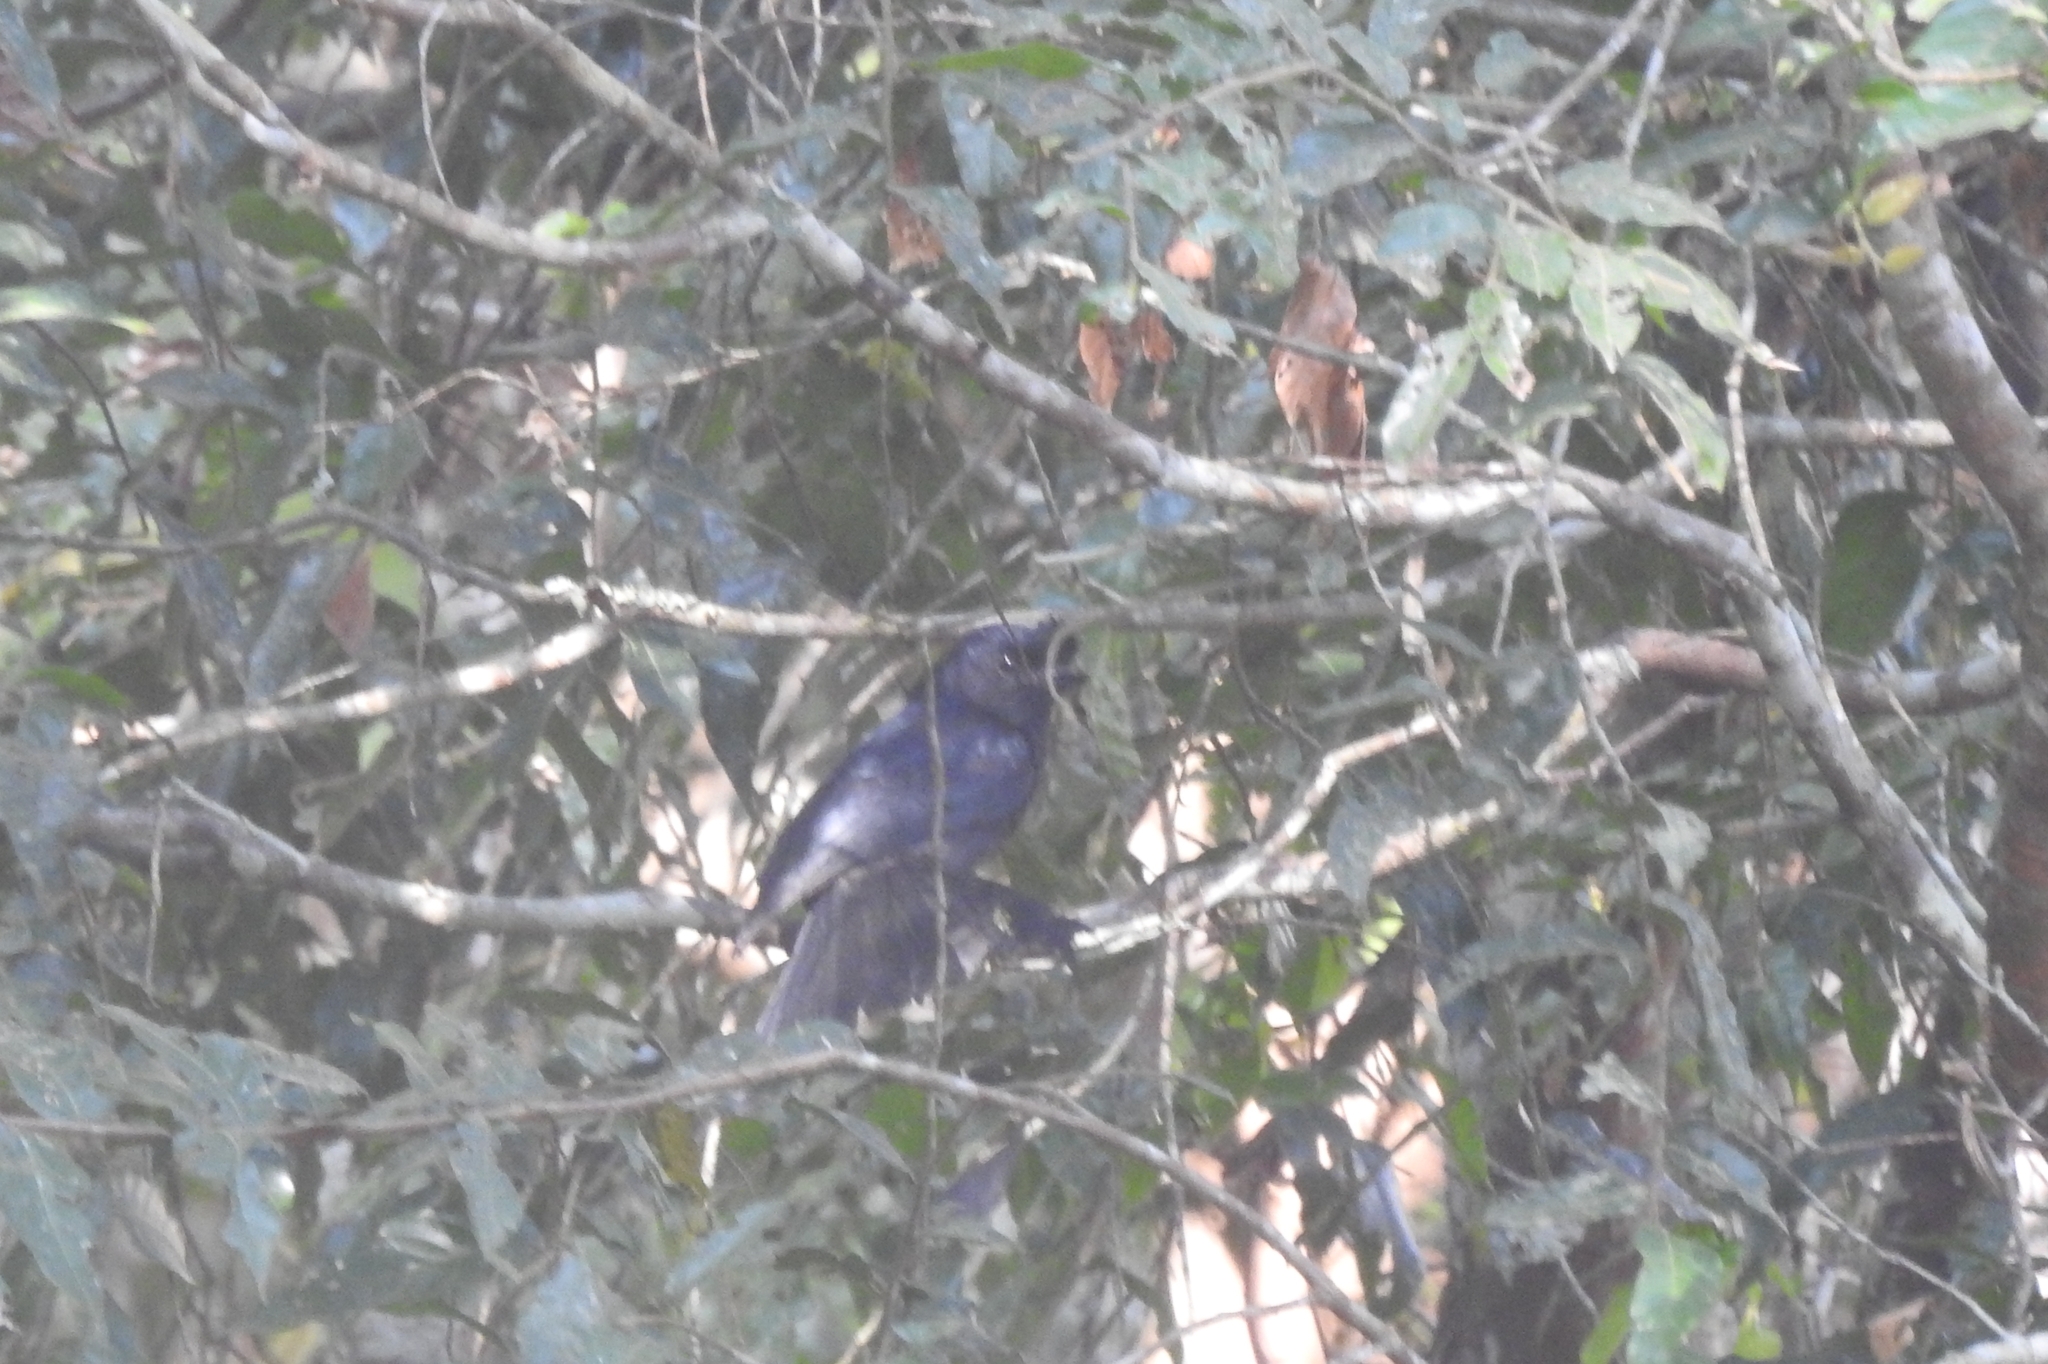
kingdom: Animalia
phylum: Chordata
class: Aves
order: Passeriformes
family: Dicruridae
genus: Dicrurus
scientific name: Dicrurus paradiseus
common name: Greater racket-tailed drongo
